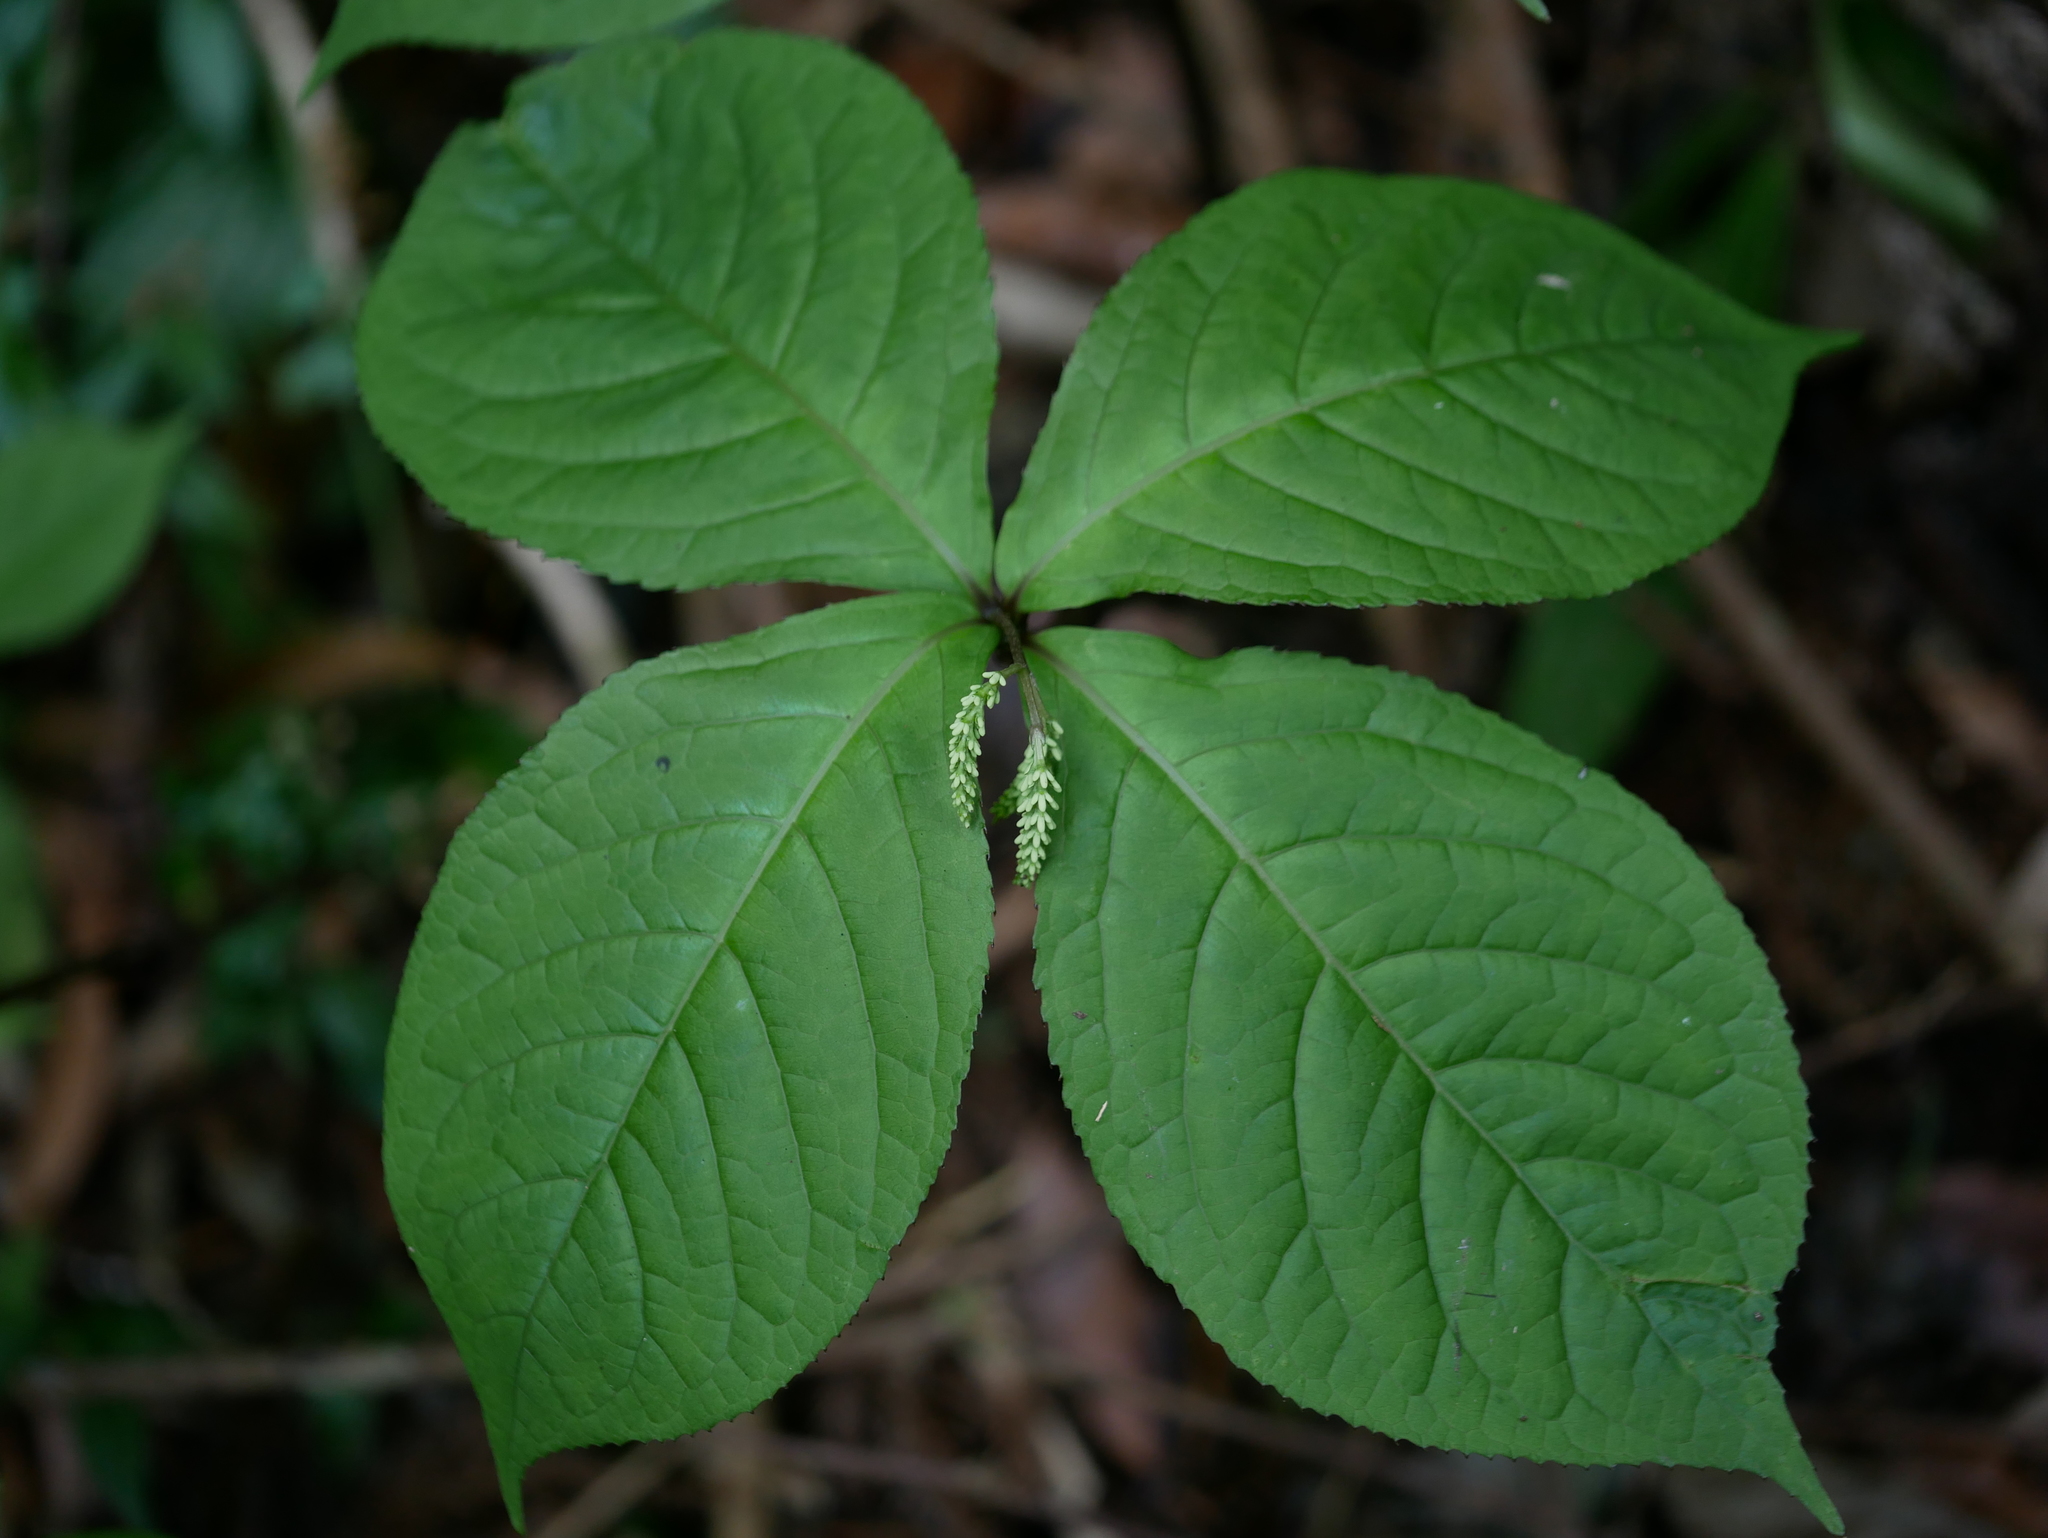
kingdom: Plantae
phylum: Tracheophyta
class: Magnoliopsida
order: Chloranthales
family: Chloranthaceae
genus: Chloranthus
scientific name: Chloranthus oldhamii
